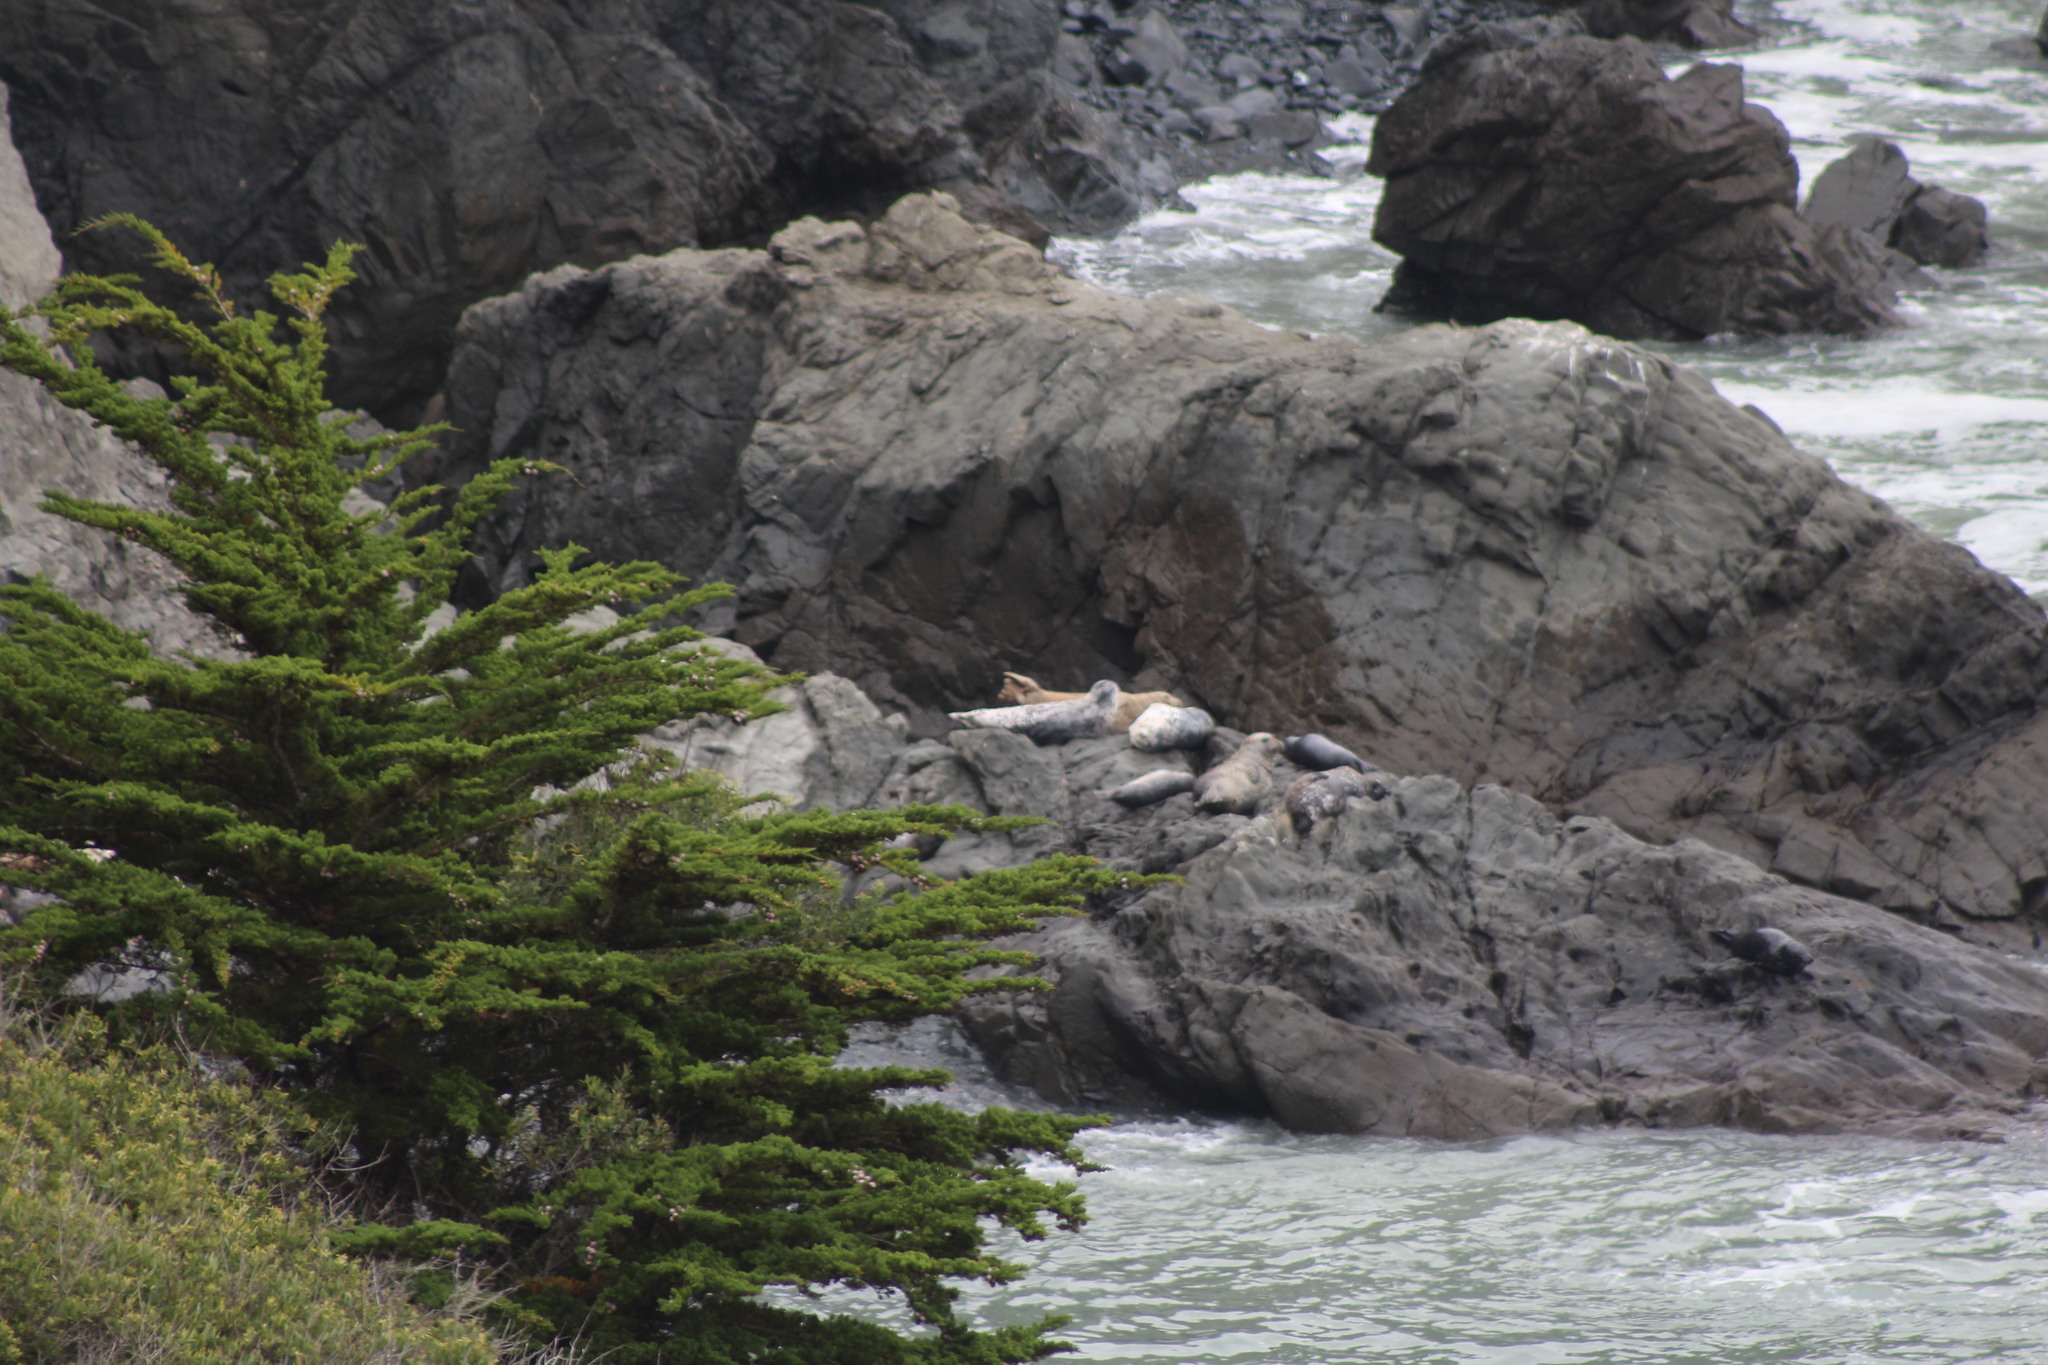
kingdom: Animalia
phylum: Chordata
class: Mammalia
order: Carnivora
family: Phocidae
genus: Phoca
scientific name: Phoca vitulina
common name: Harbor seal
